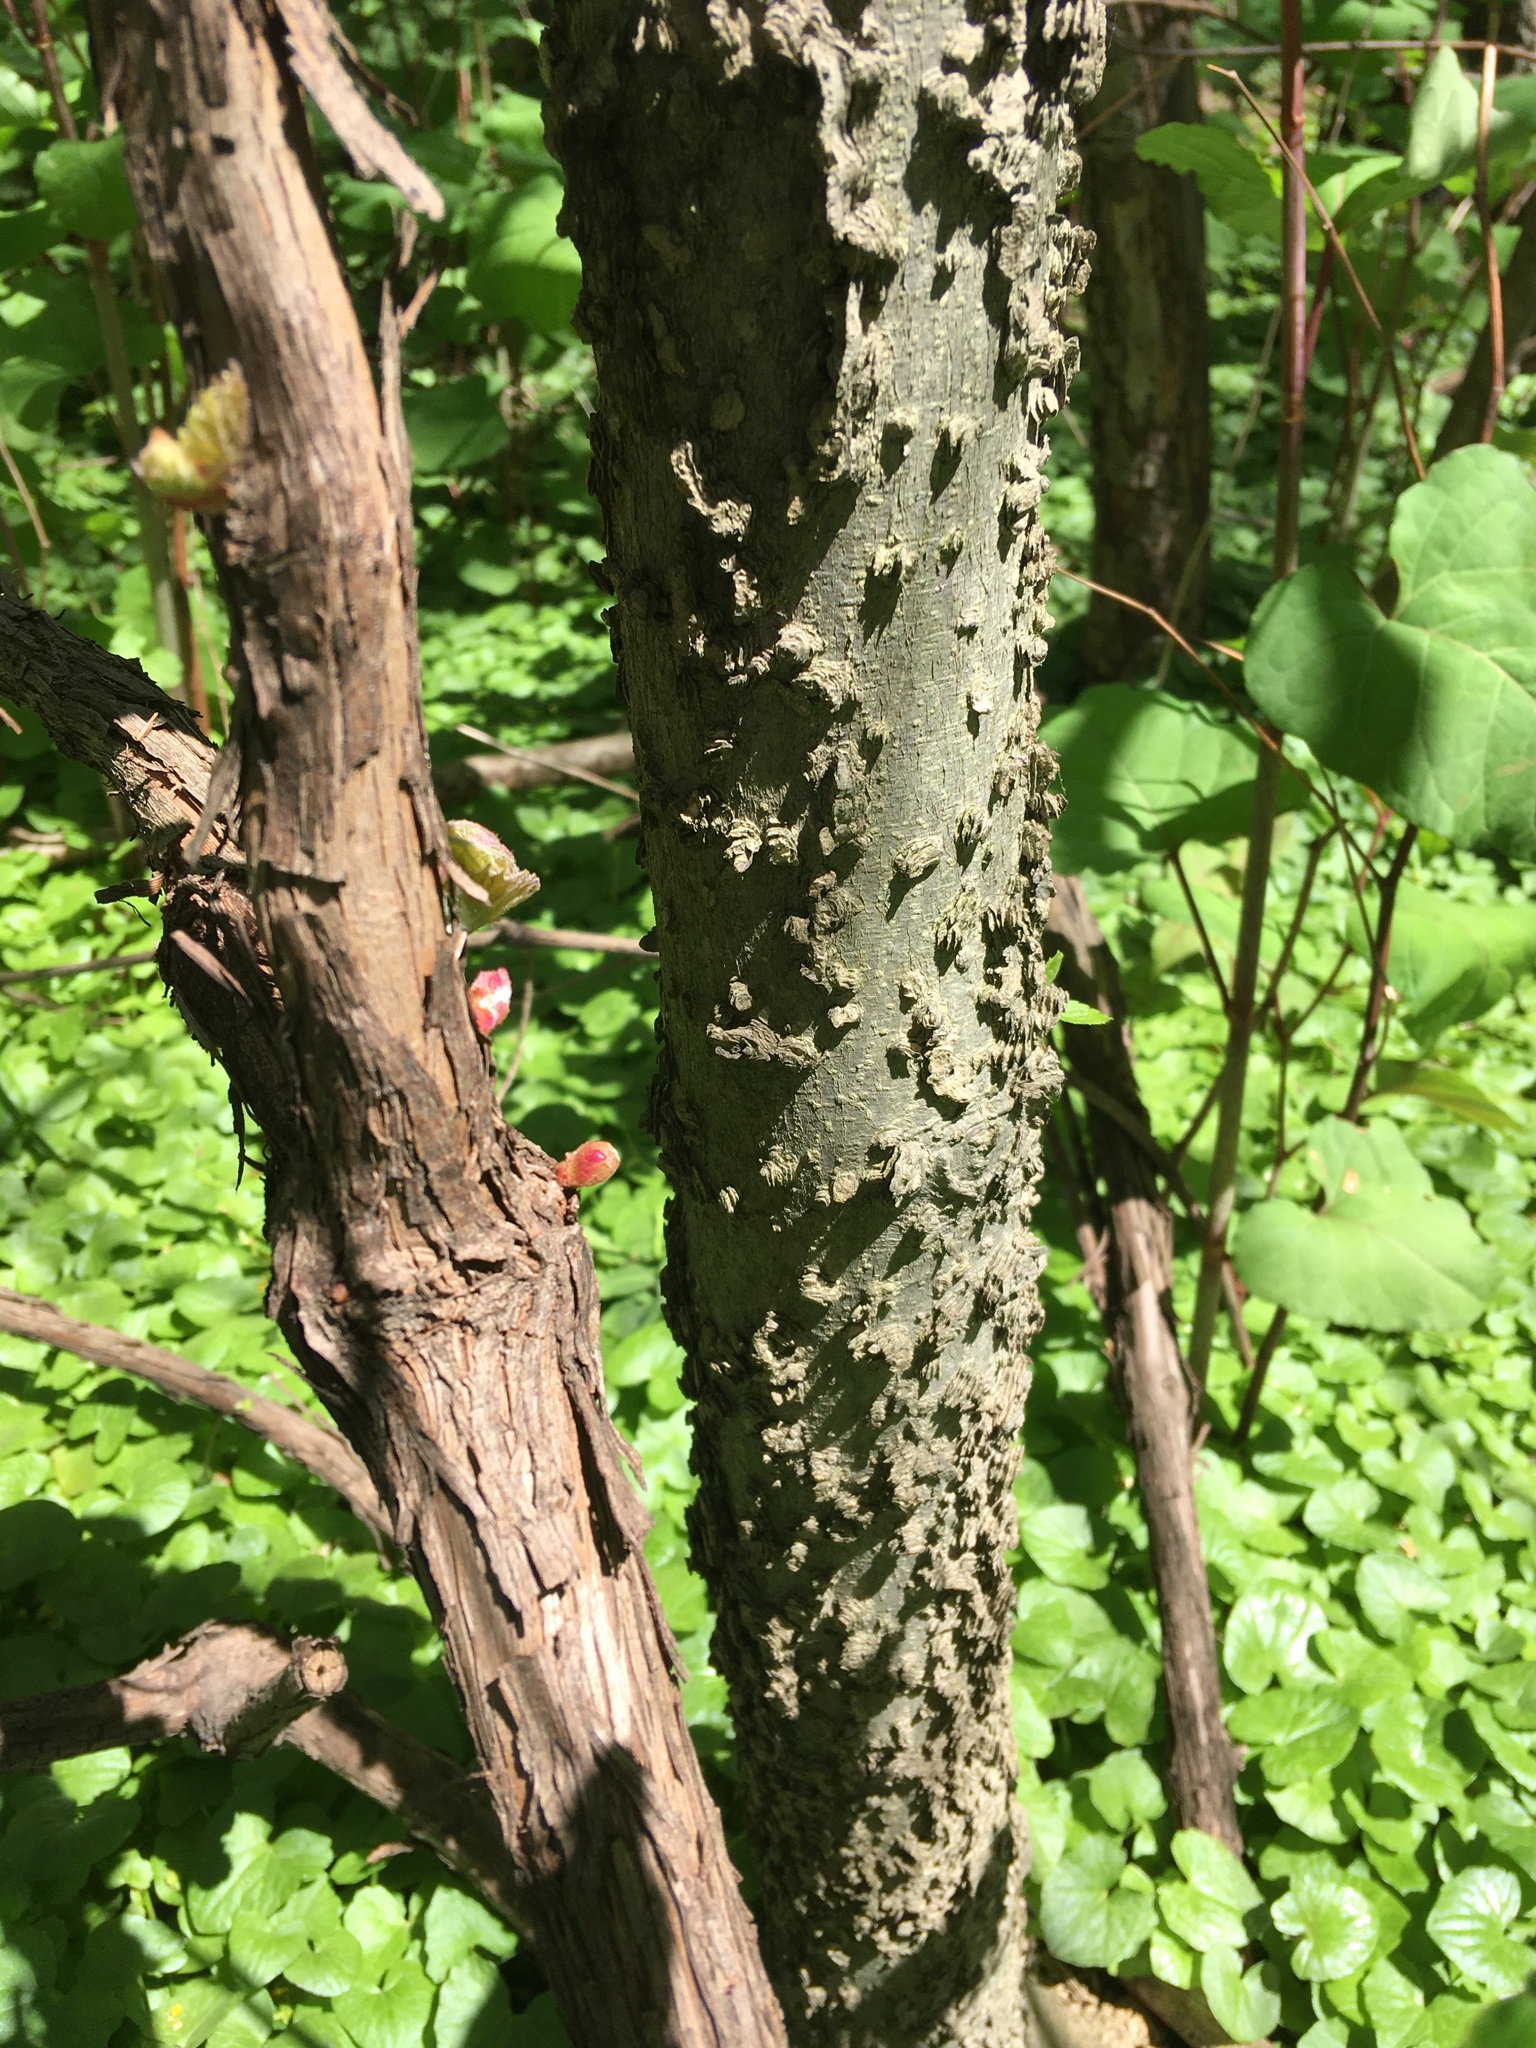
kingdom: Plantae
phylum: Tracheophyta
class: Magnoliopsida
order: Rosales
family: Cannabaceae
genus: Celtis
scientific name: Celtis occidentalis
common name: Common hackberry
